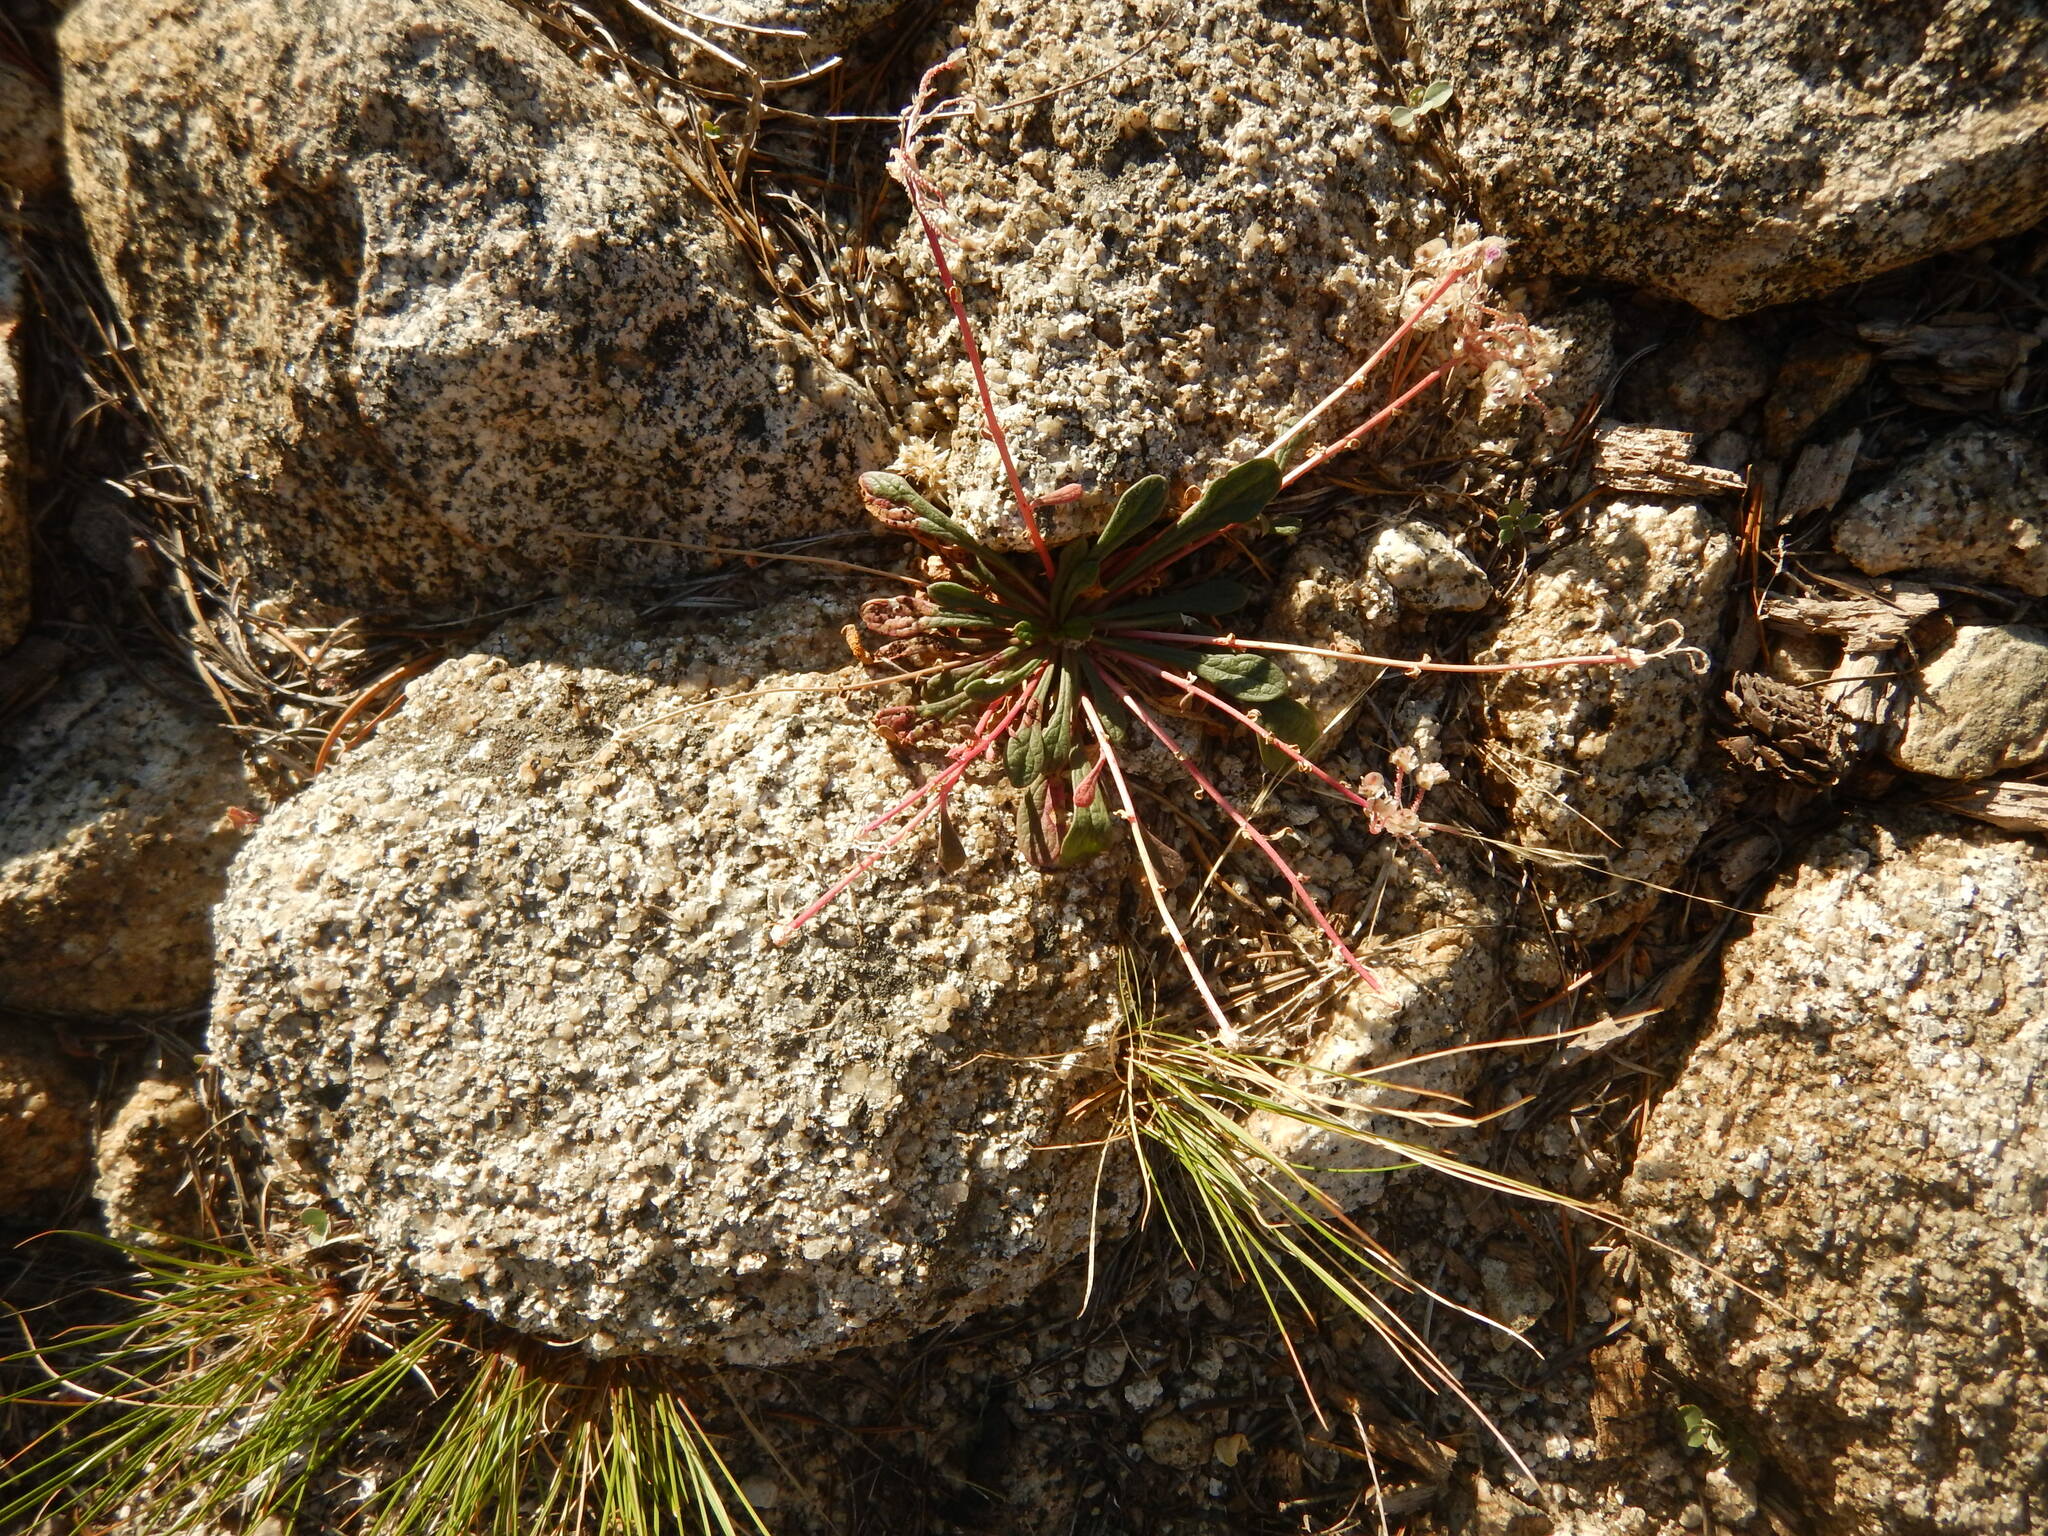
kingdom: Plantae
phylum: Tracheophyta
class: Magnoliopsida
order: Caryophyllales
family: Montiaceae
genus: Calyptridium
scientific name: Calyptridium monospermum
